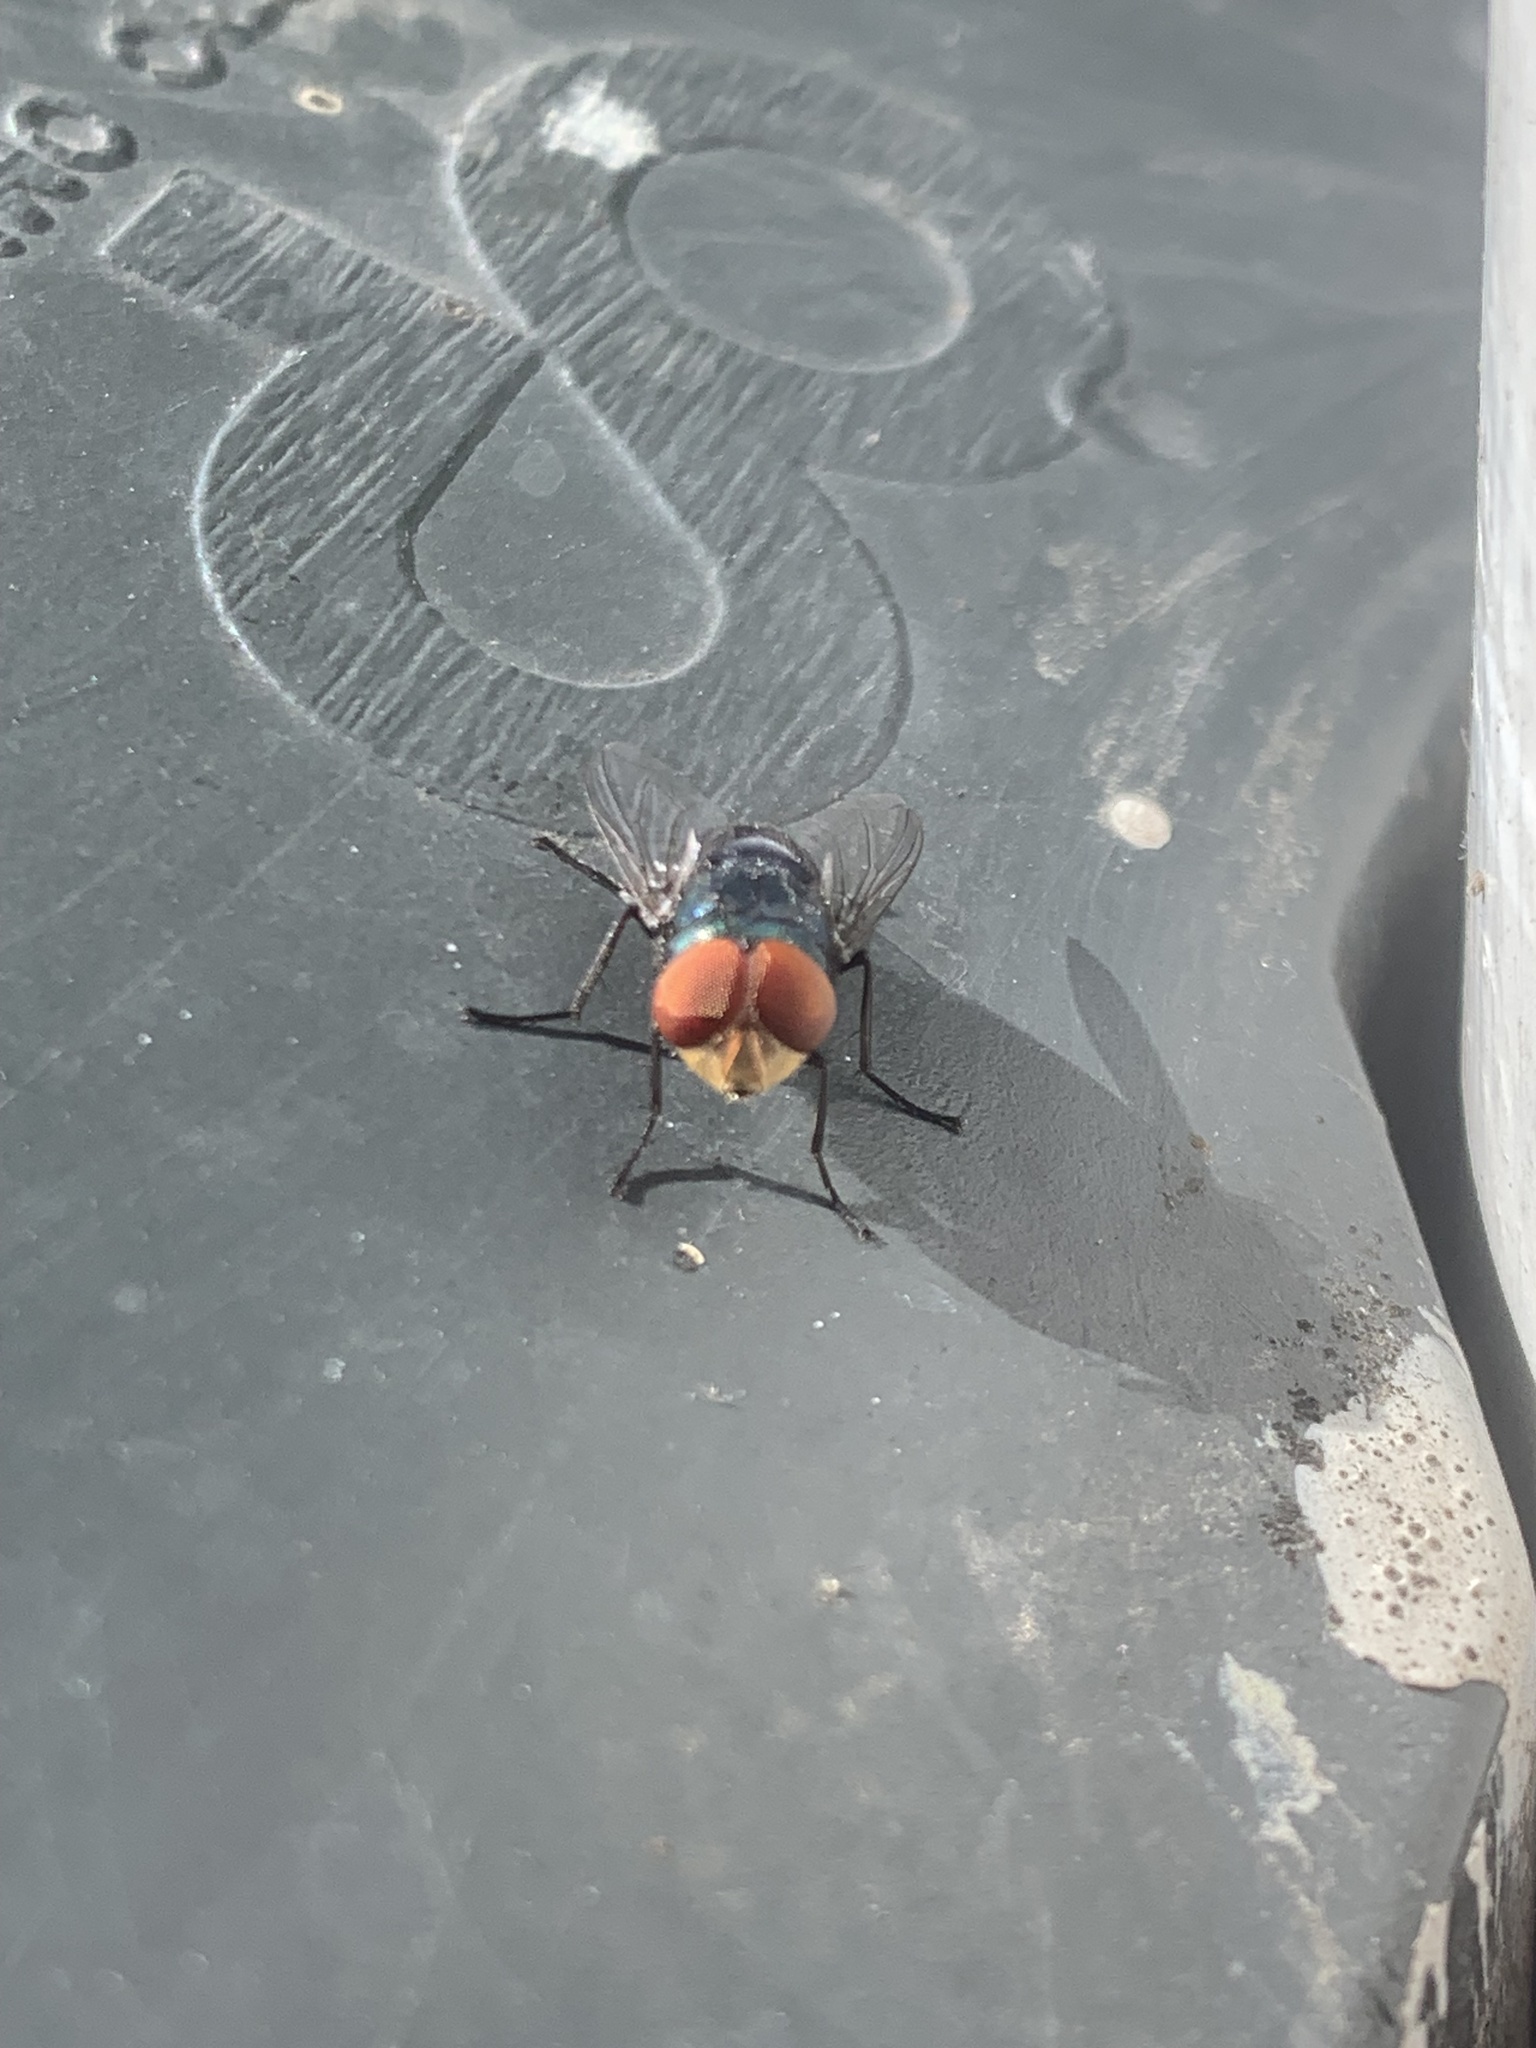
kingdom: Animalia
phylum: Arthropoda
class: Insecta
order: Diptera
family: Calliphoridae
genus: Chrysomya
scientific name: Chrysomya megacephala
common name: Blow fly
